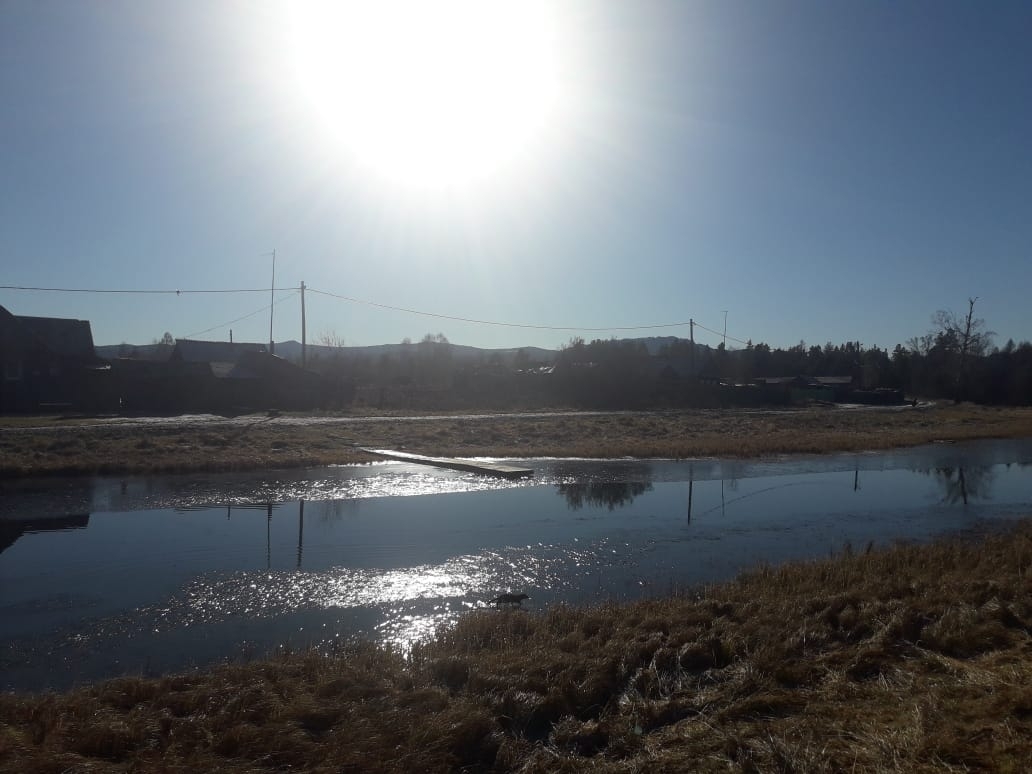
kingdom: Animalia
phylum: Chordata
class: Mammalia
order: Carnivora
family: Mustelidae
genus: Mustela
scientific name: Mustela
